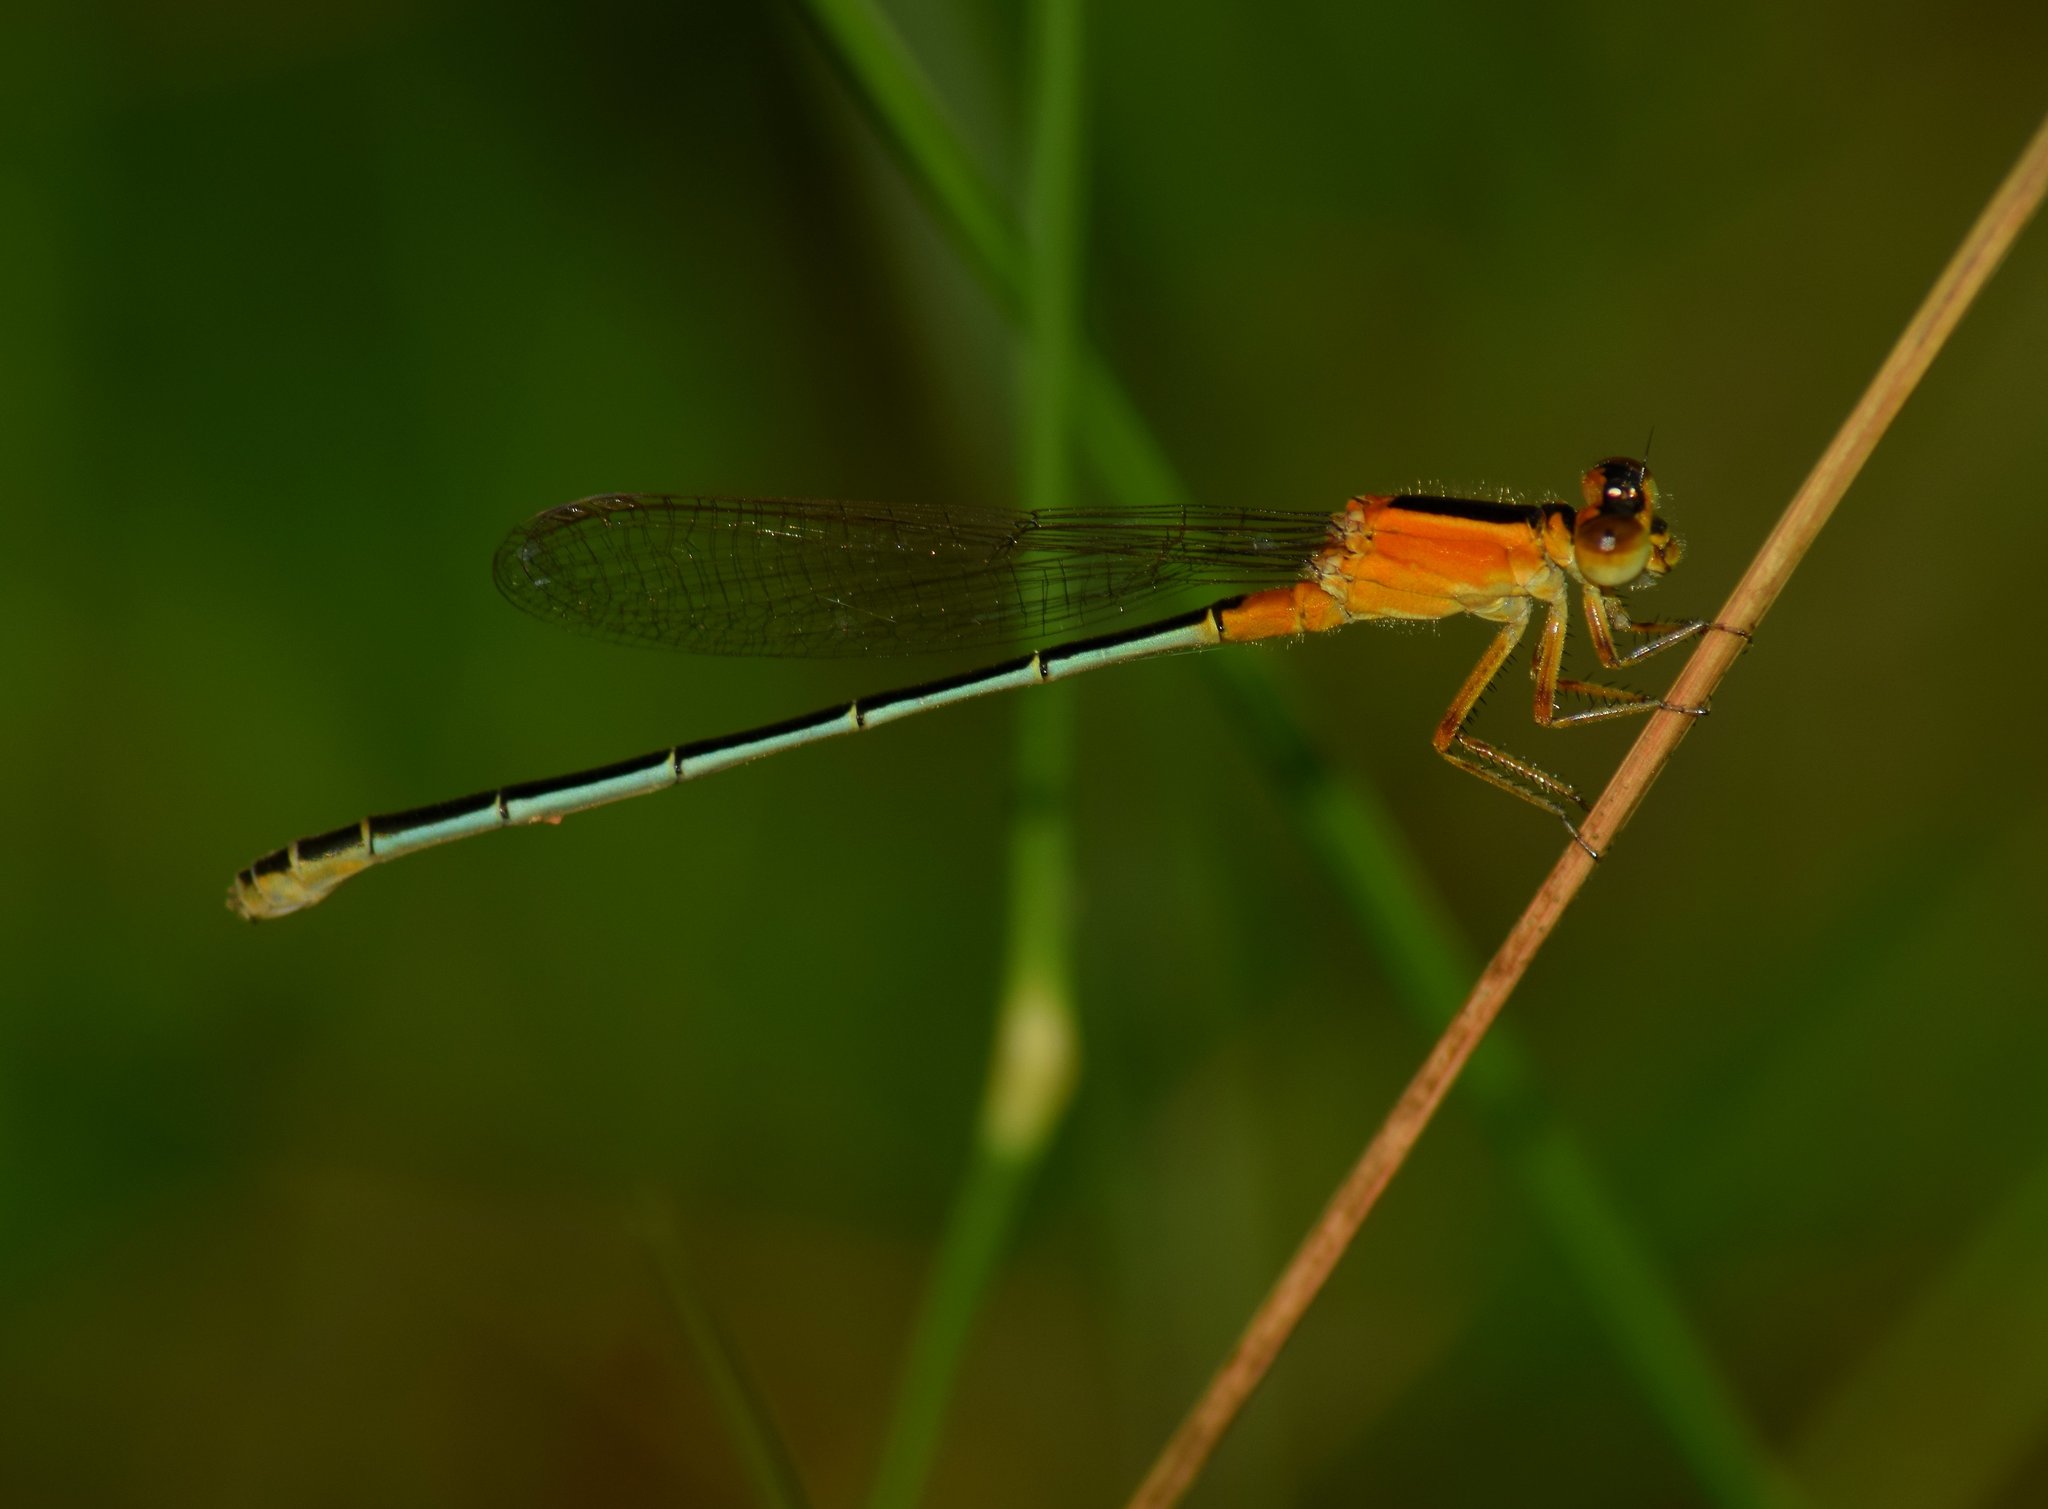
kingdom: Animalia
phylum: Arthropoda
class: Insecta
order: Odonata
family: Coenagrionidae
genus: Ischnura
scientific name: Ischnura senegalensis
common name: Tropical bluetail
